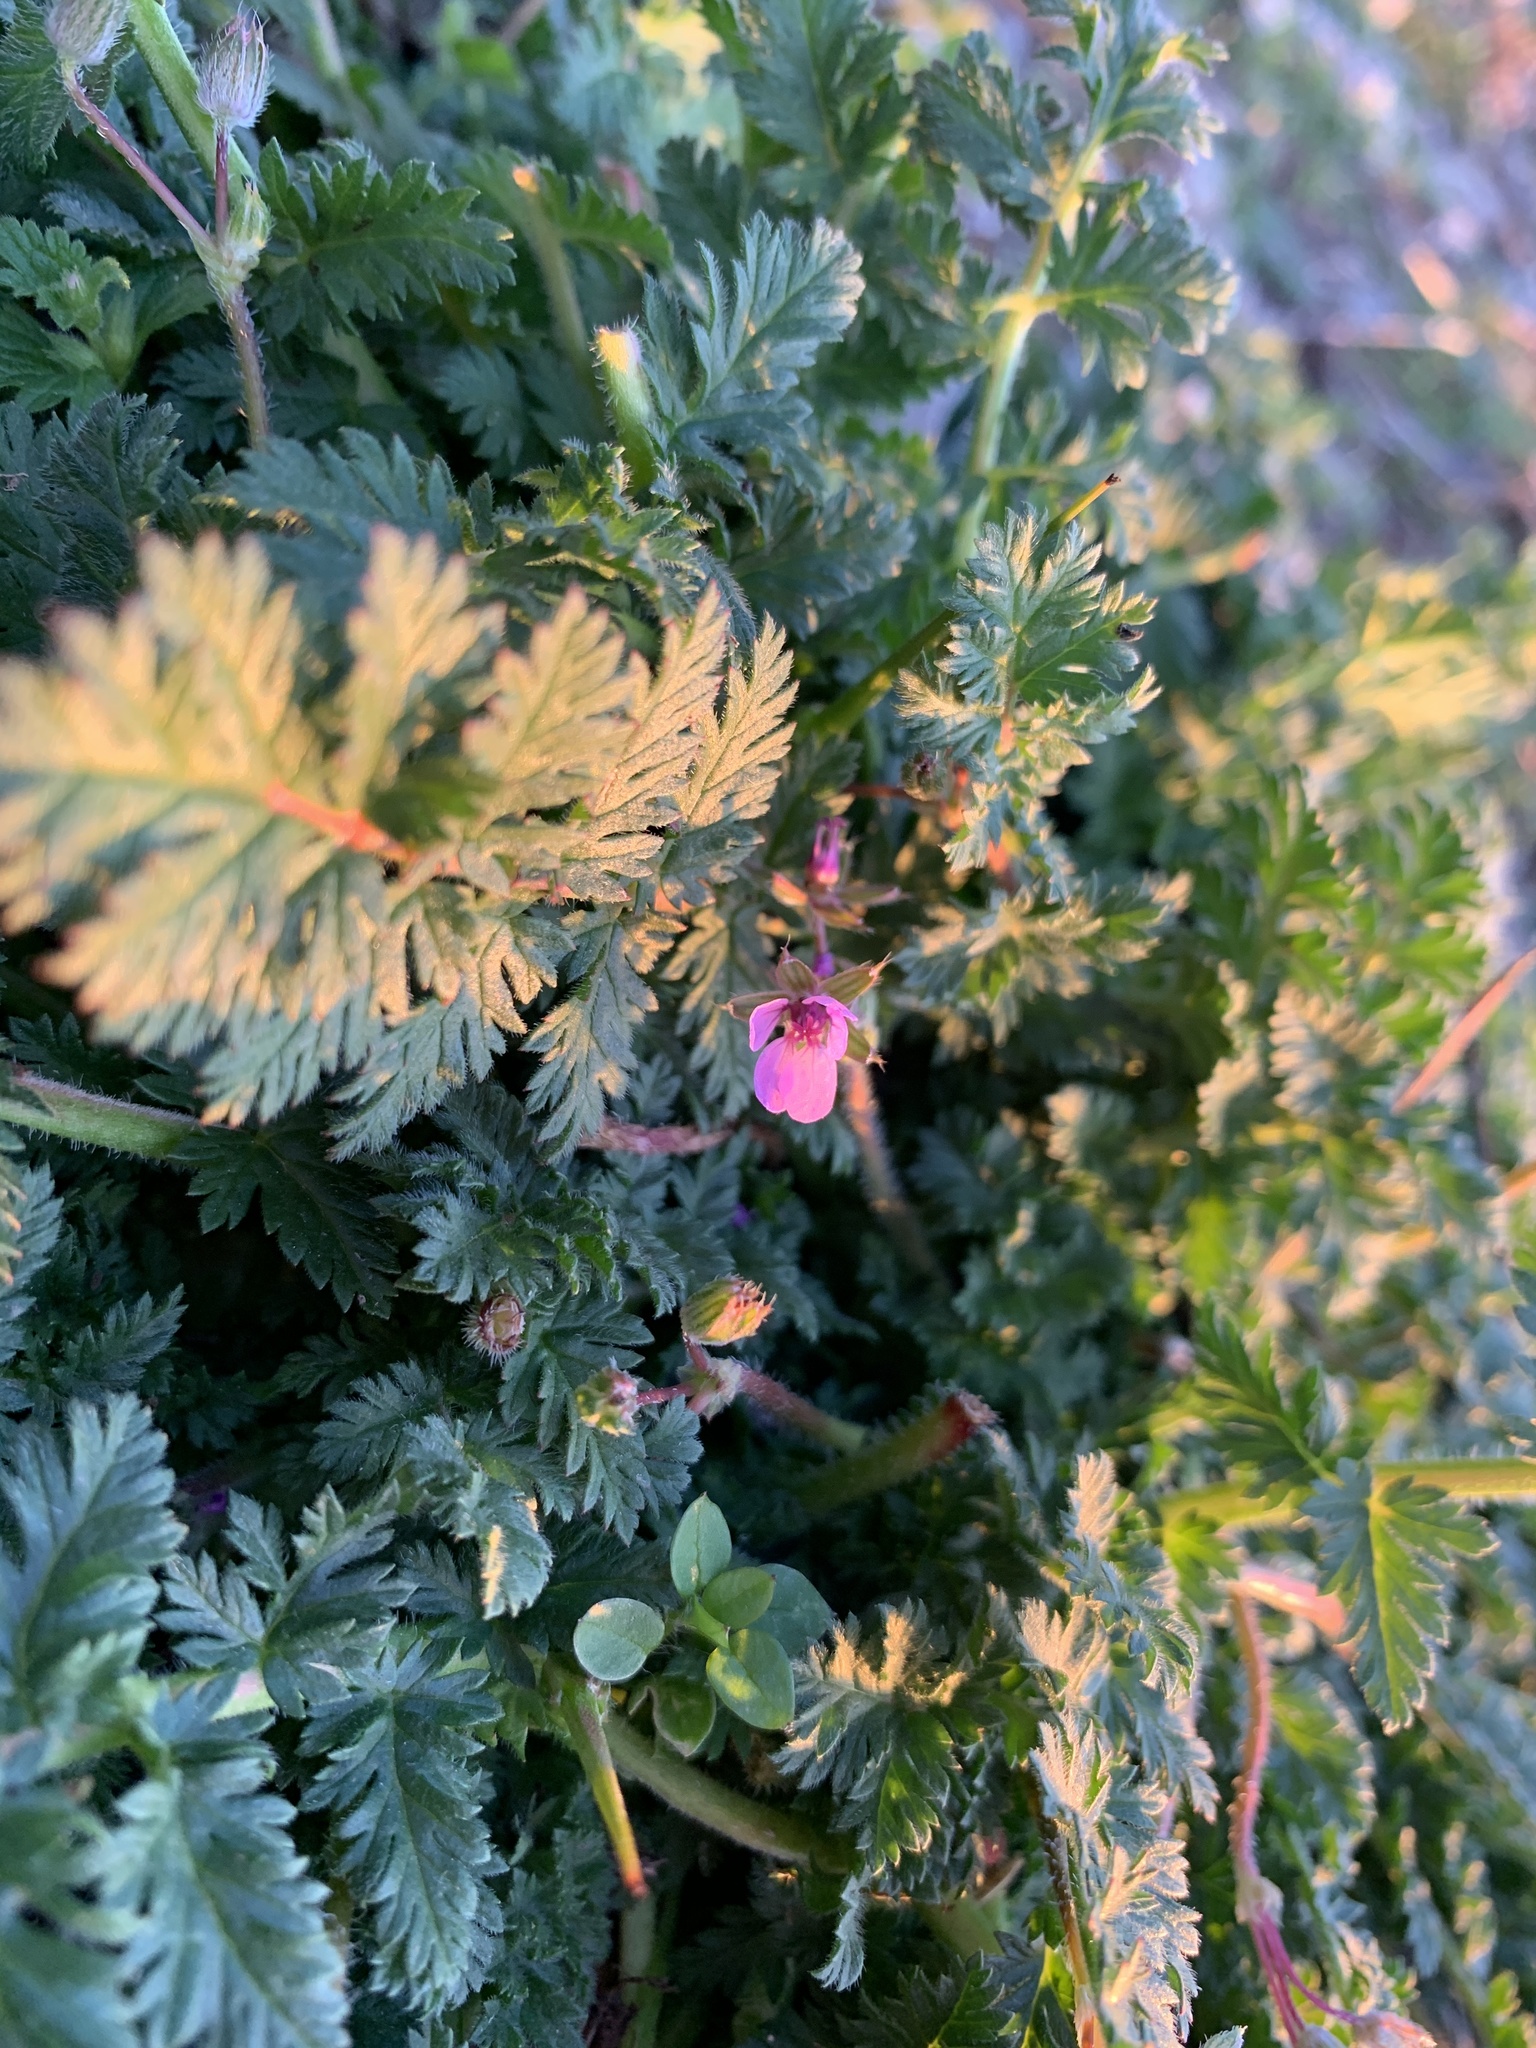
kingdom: Plantae
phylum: Tracheophyta
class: Magnoliopsida
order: Geraniales
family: Geraniaceae
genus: Erodium
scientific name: Erodium cicutarium
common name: Common stork's-bill
